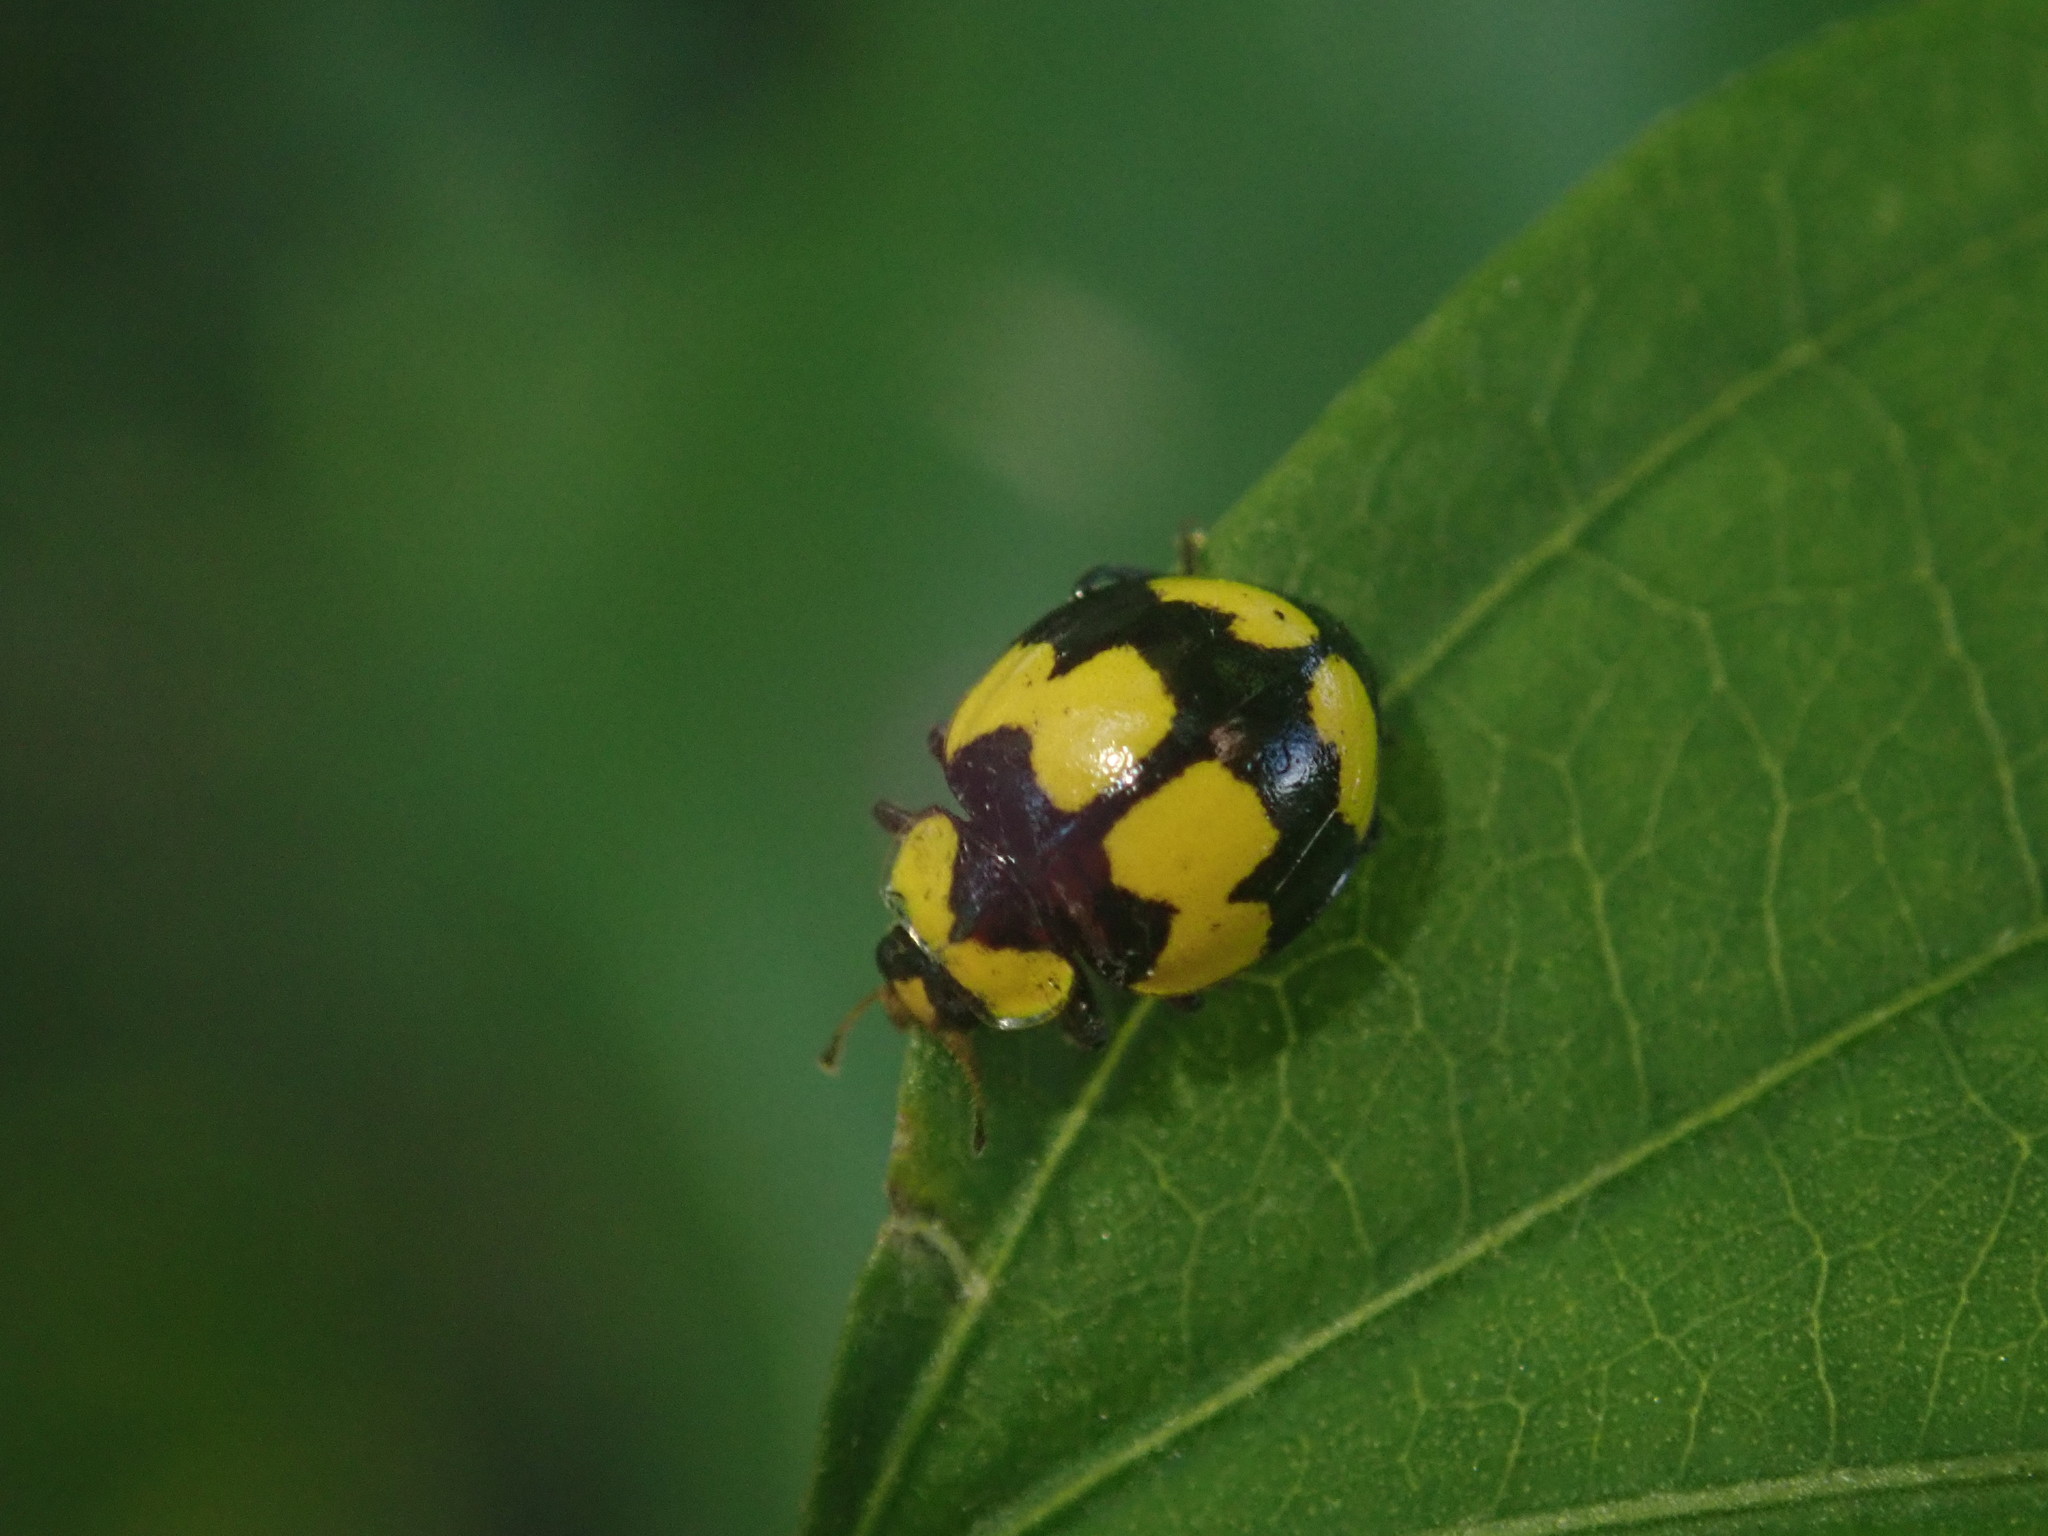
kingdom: Animalia
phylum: Arthropoda
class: Insecta
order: Coleoptera
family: Coccinellidae
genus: Illeis
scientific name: Illeis galbula
